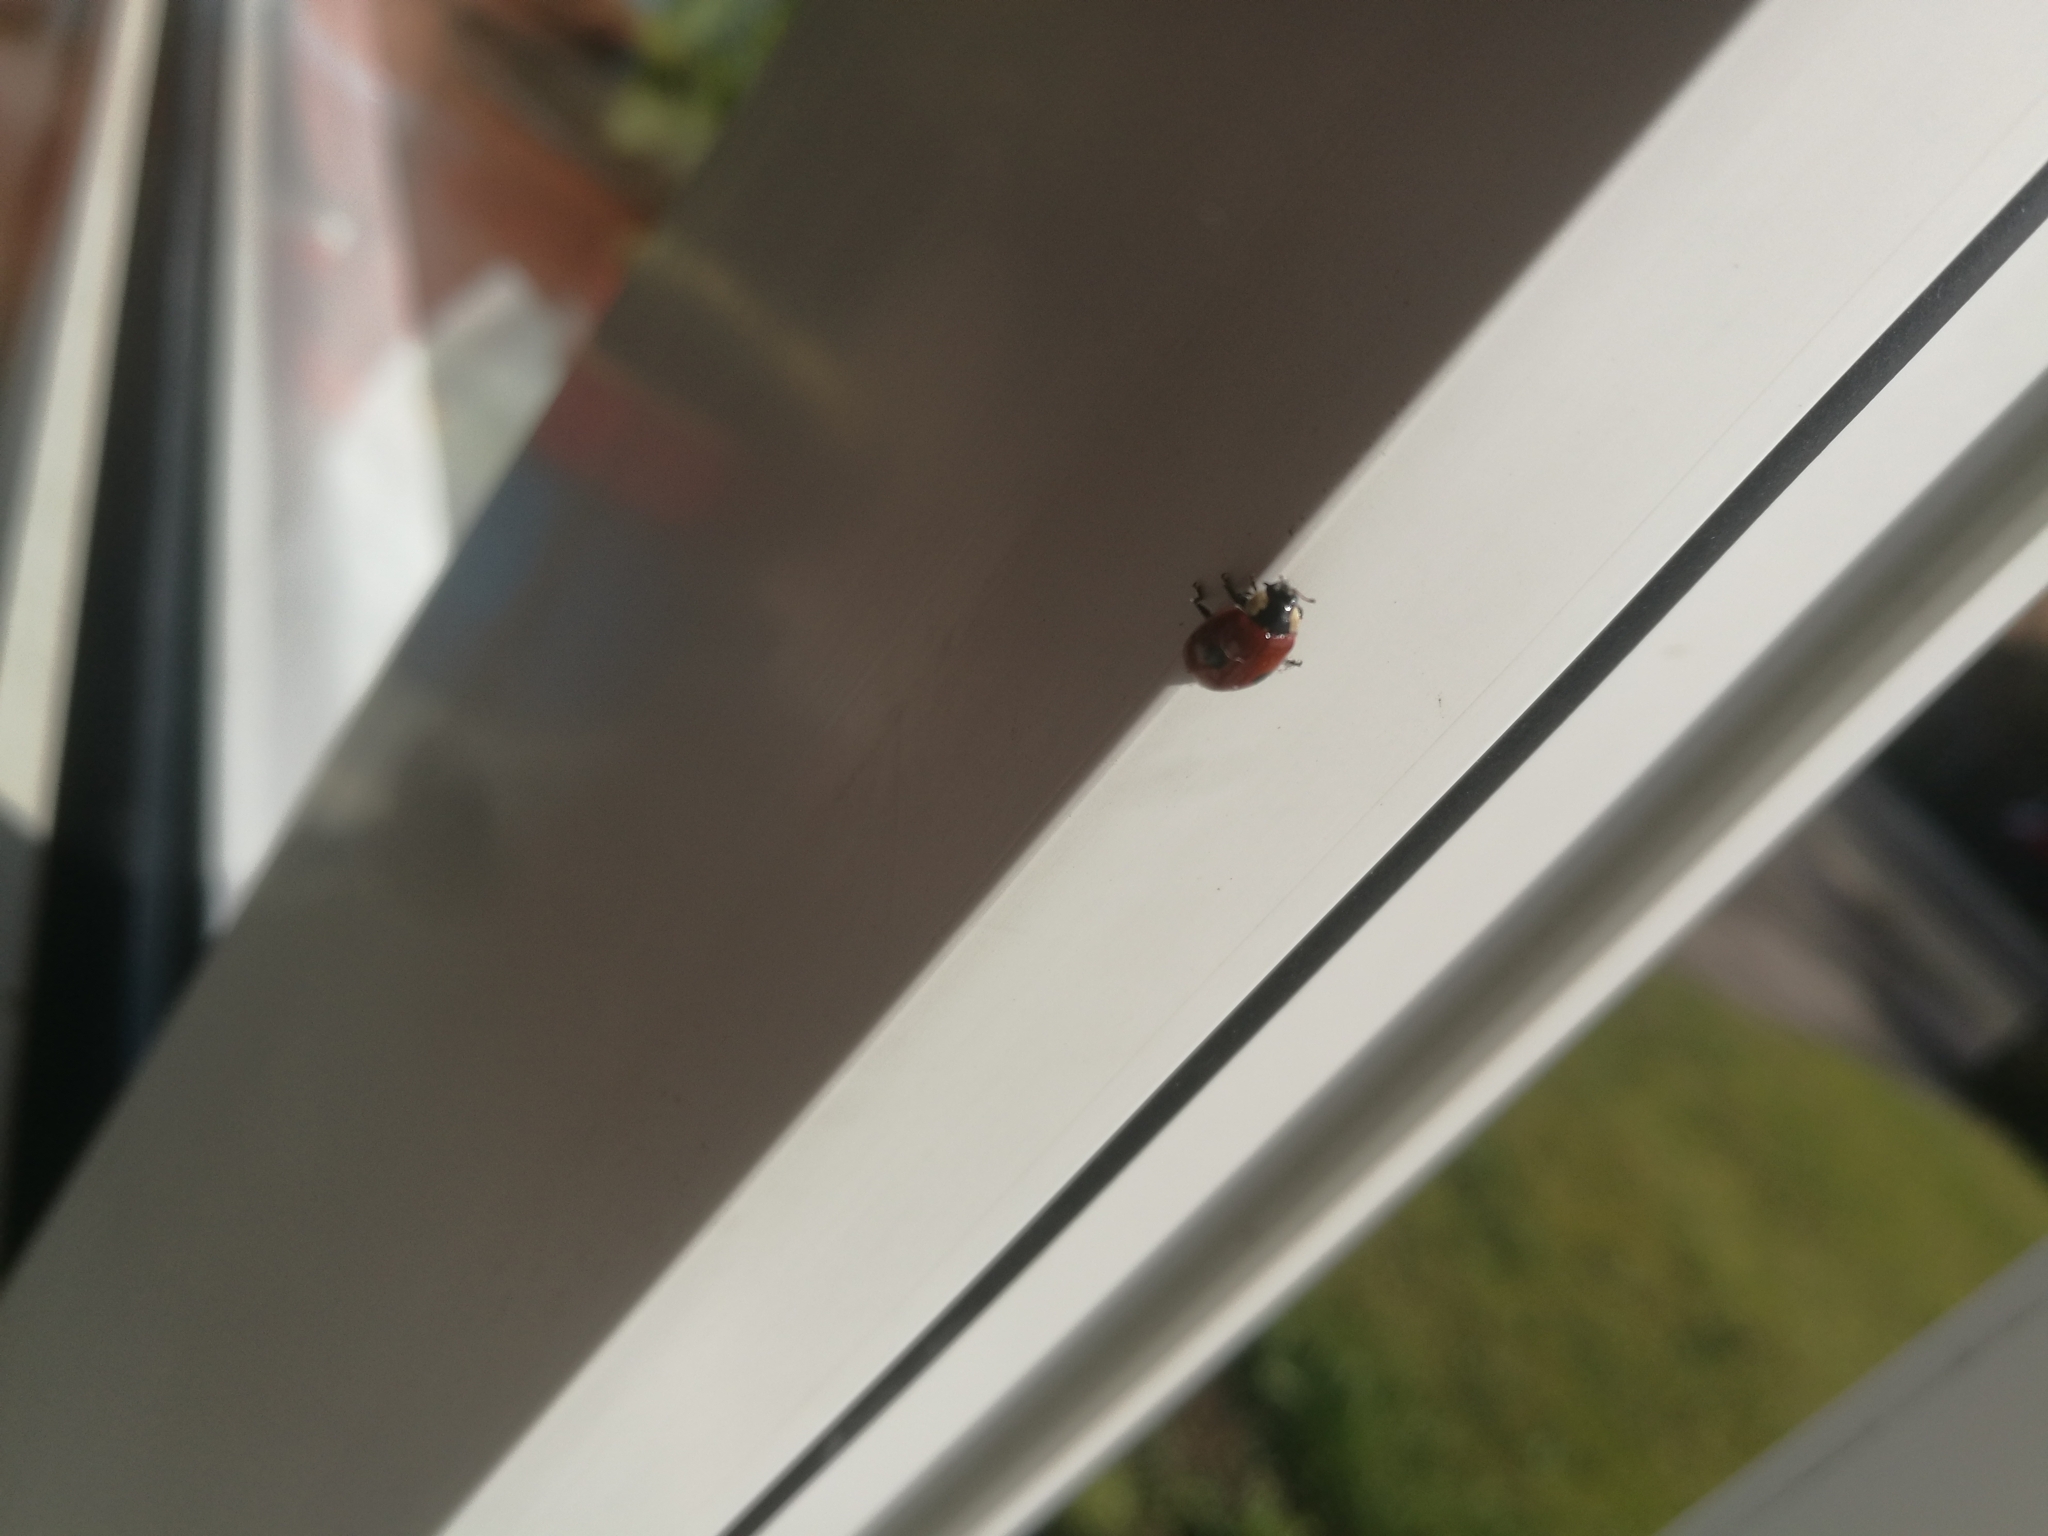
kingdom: Animalia
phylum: Arthropoda
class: Insecta
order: Coleoptera
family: Coccinellidae
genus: Adalia
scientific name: Adalia bipunctata
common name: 2-spot ladybird
